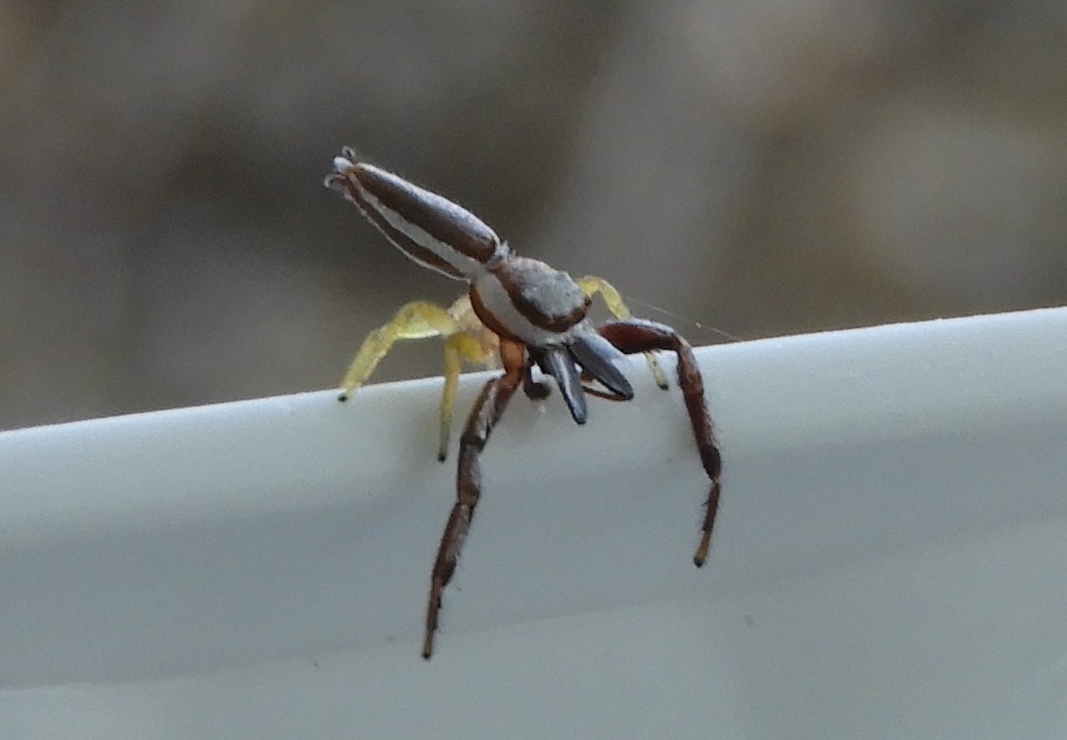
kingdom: Animalia
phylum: Arthropoda
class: Arachnida
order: Araneae
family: Salticidae
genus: Hentzia
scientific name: Hentzia palmarum
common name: Common hentz jumping spider
